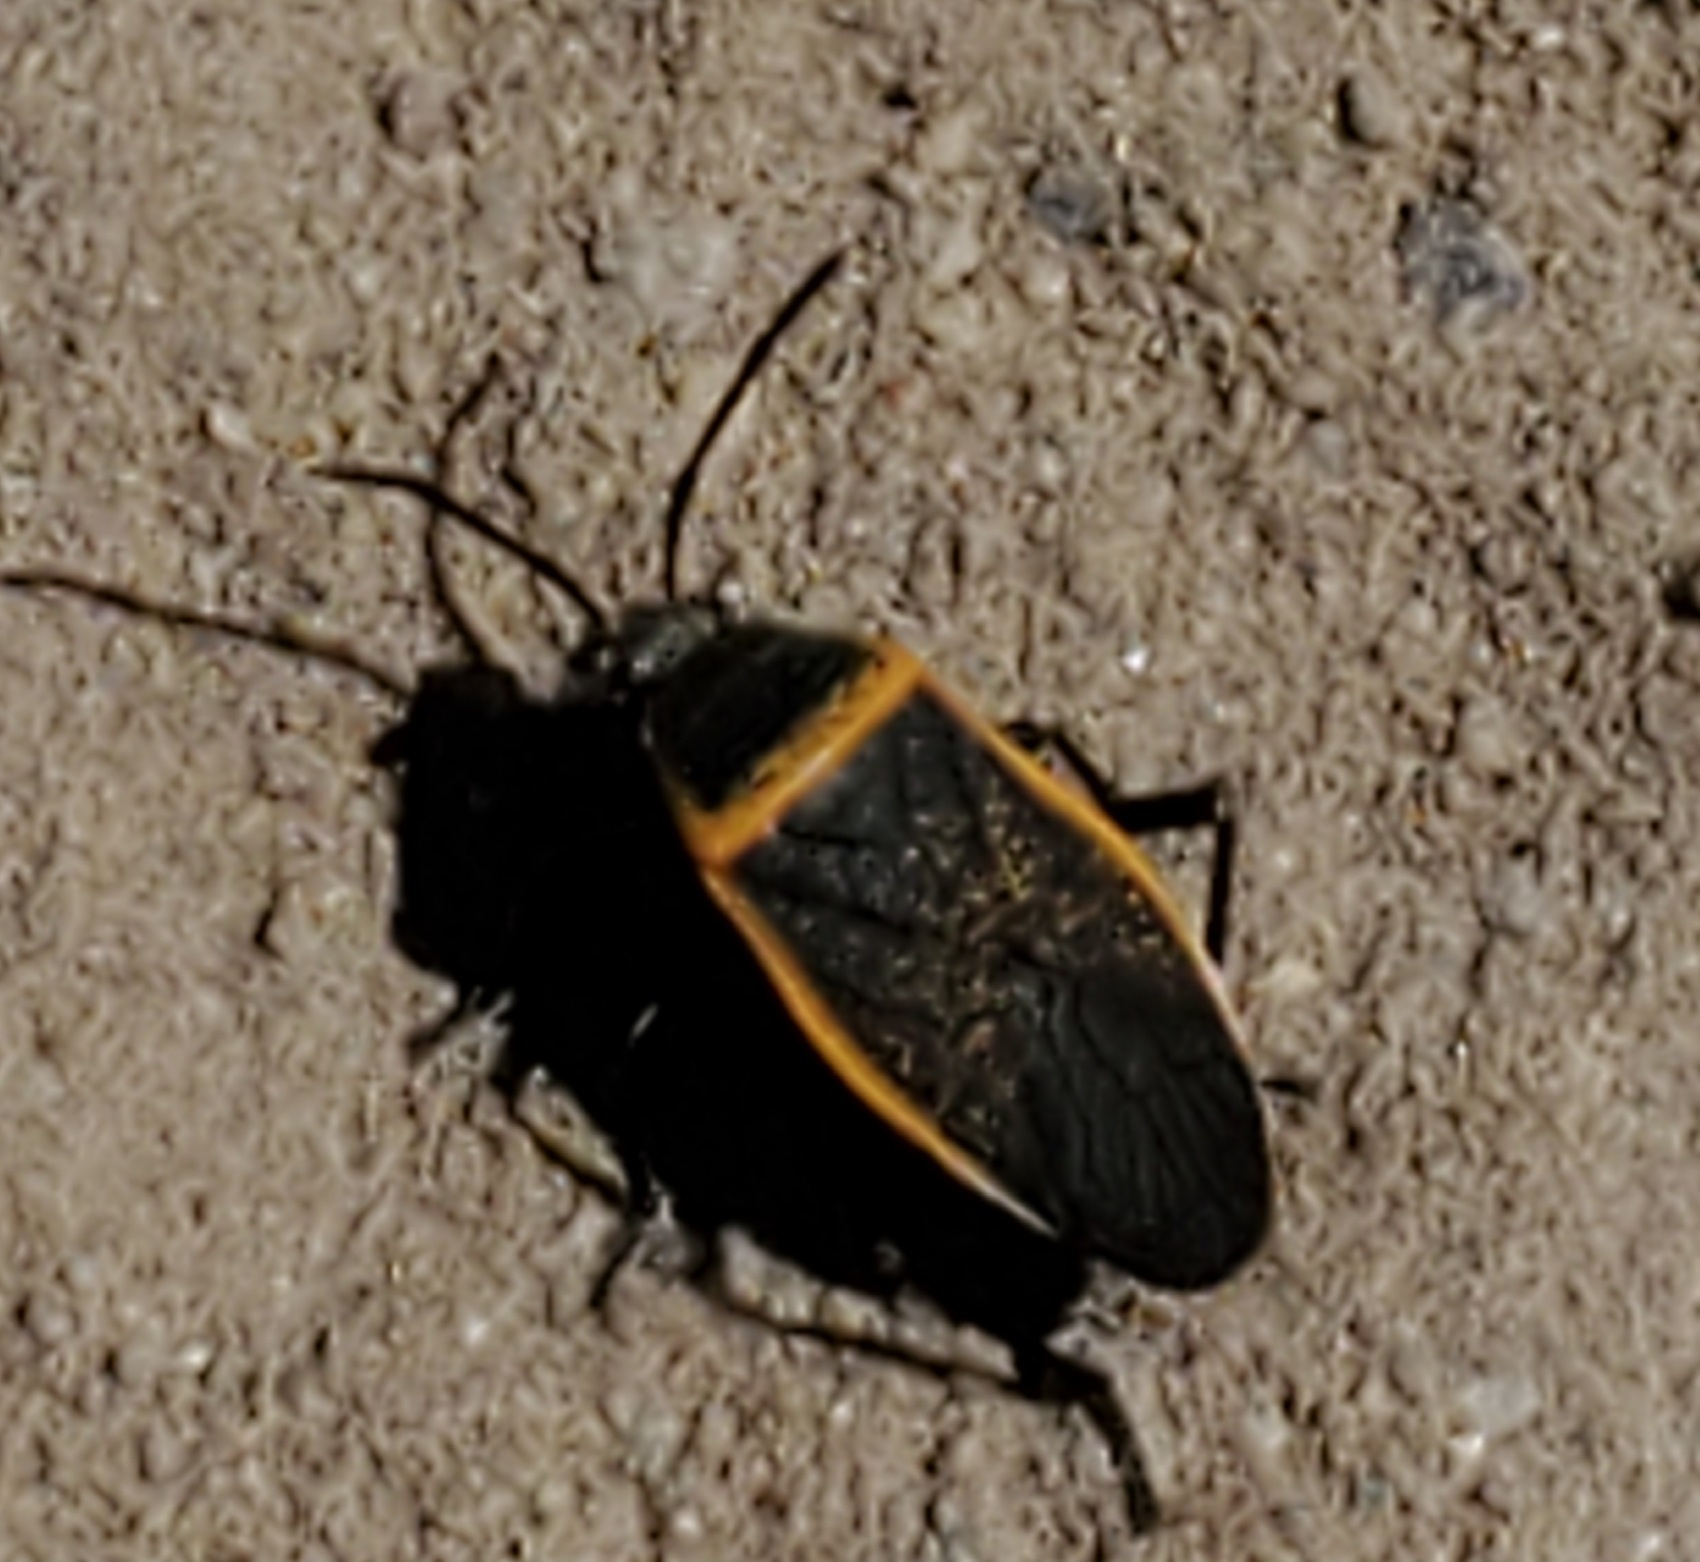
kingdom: Animalia
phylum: Arthropoda
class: Insecta
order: Hemiptera
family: Largidae
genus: Largus
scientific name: Largus californicus
